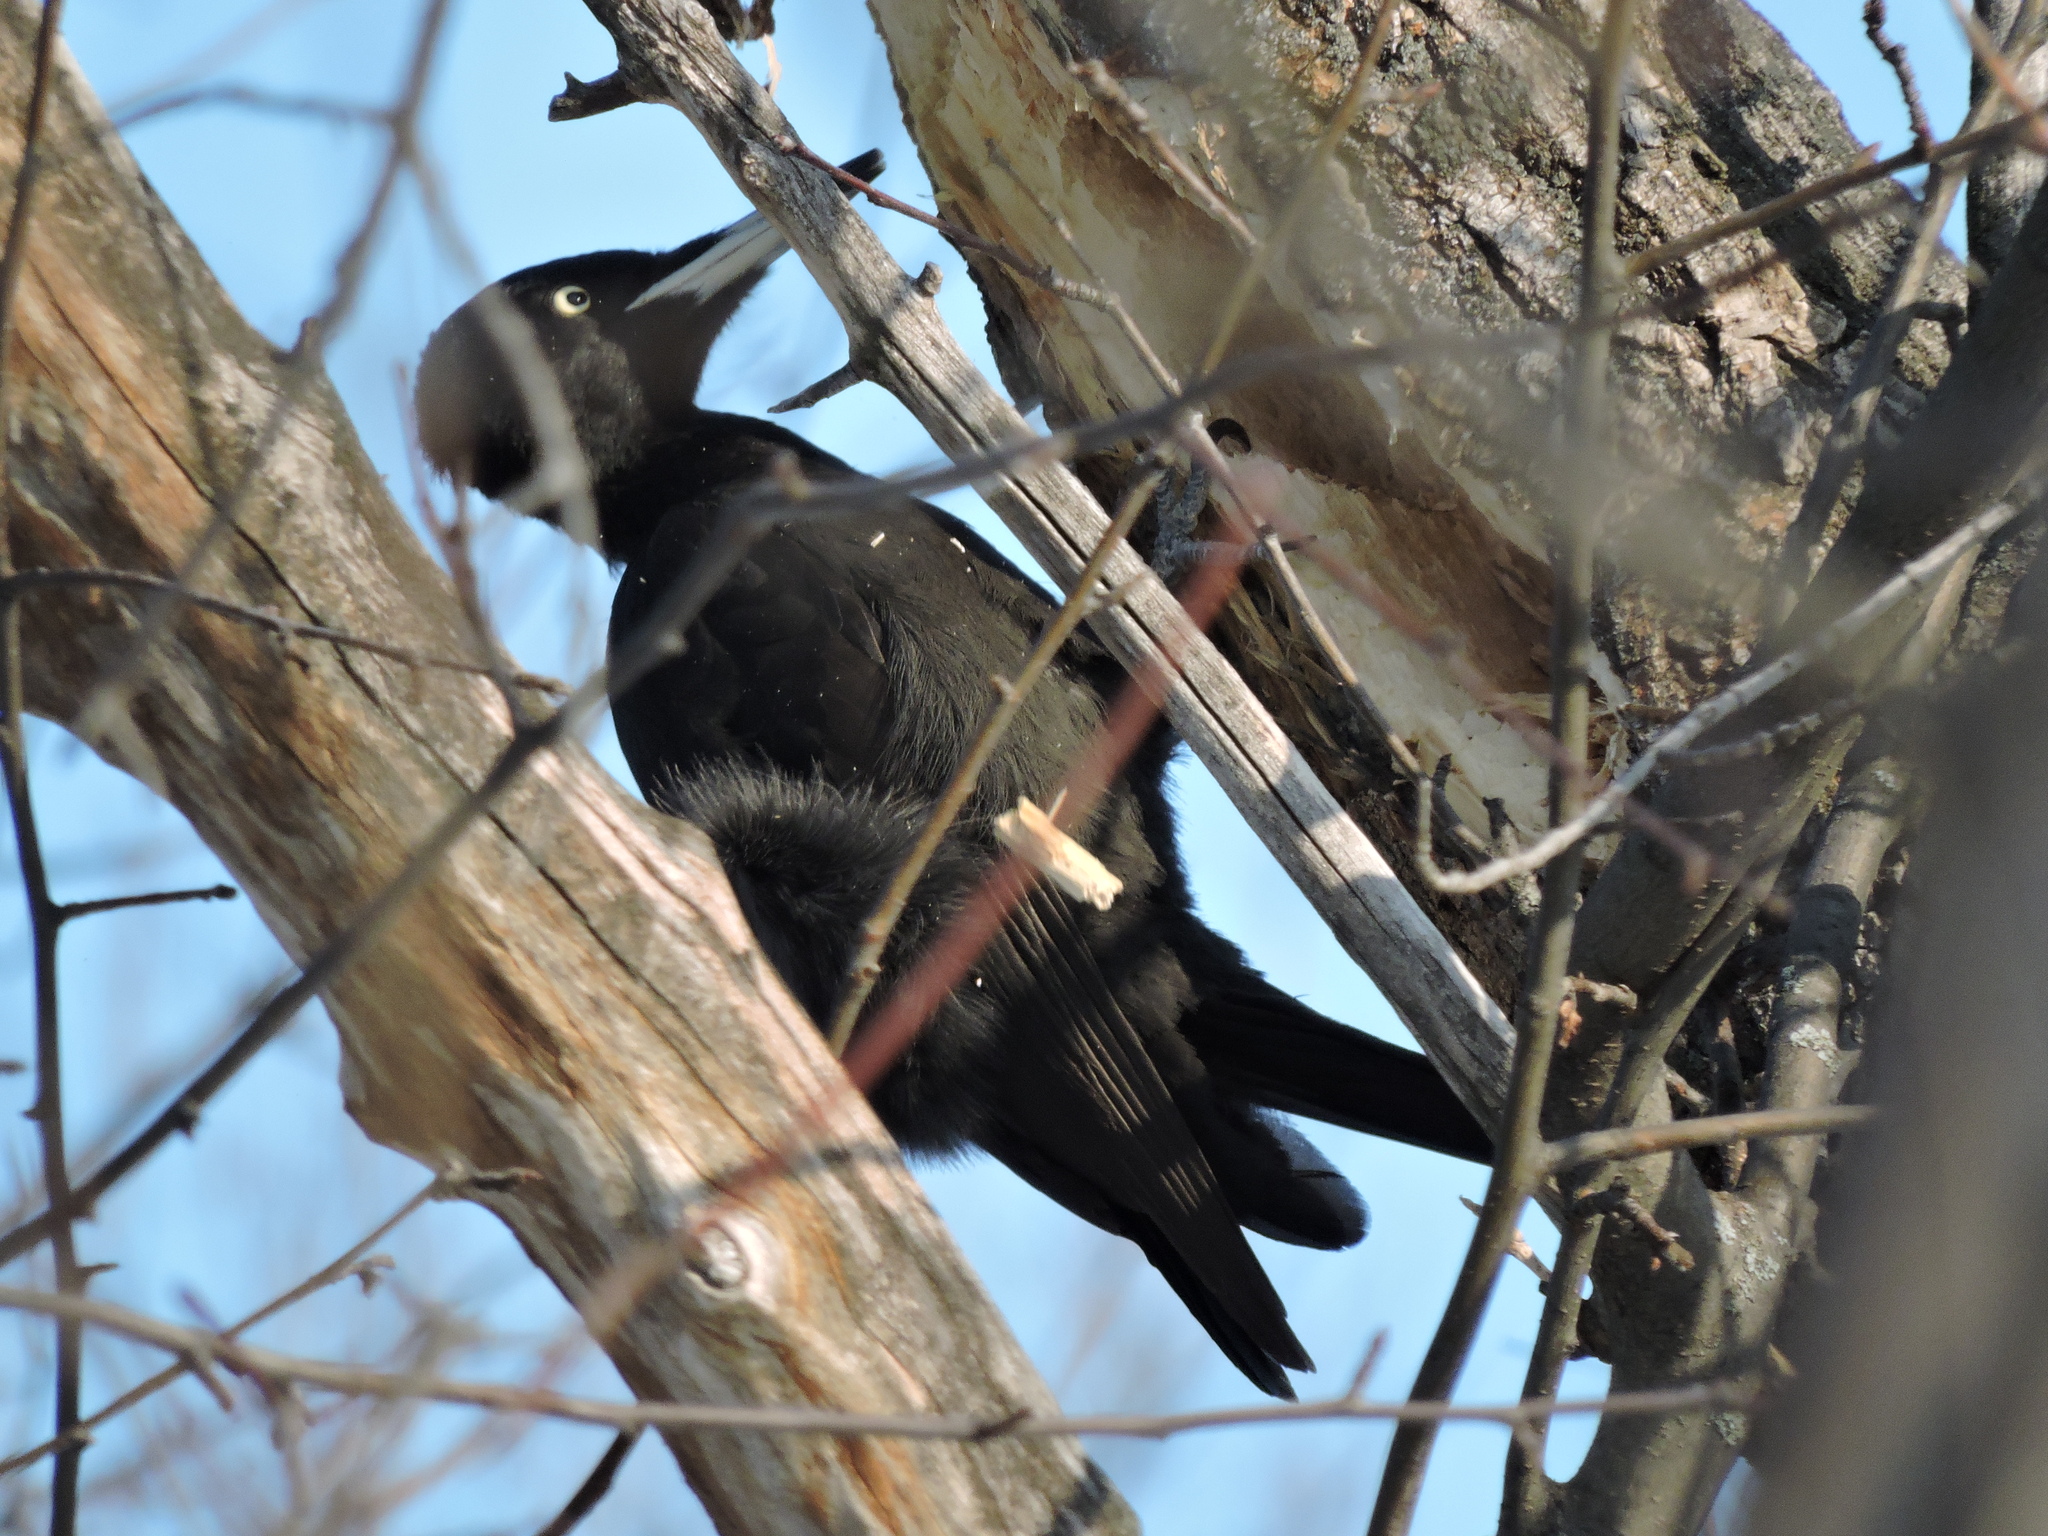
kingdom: Animalia
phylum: Chordata
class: Aves
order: Piciformes
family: Picidae
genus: Dryocopus
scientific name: Dryocopus martius
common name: Black woodpecker
